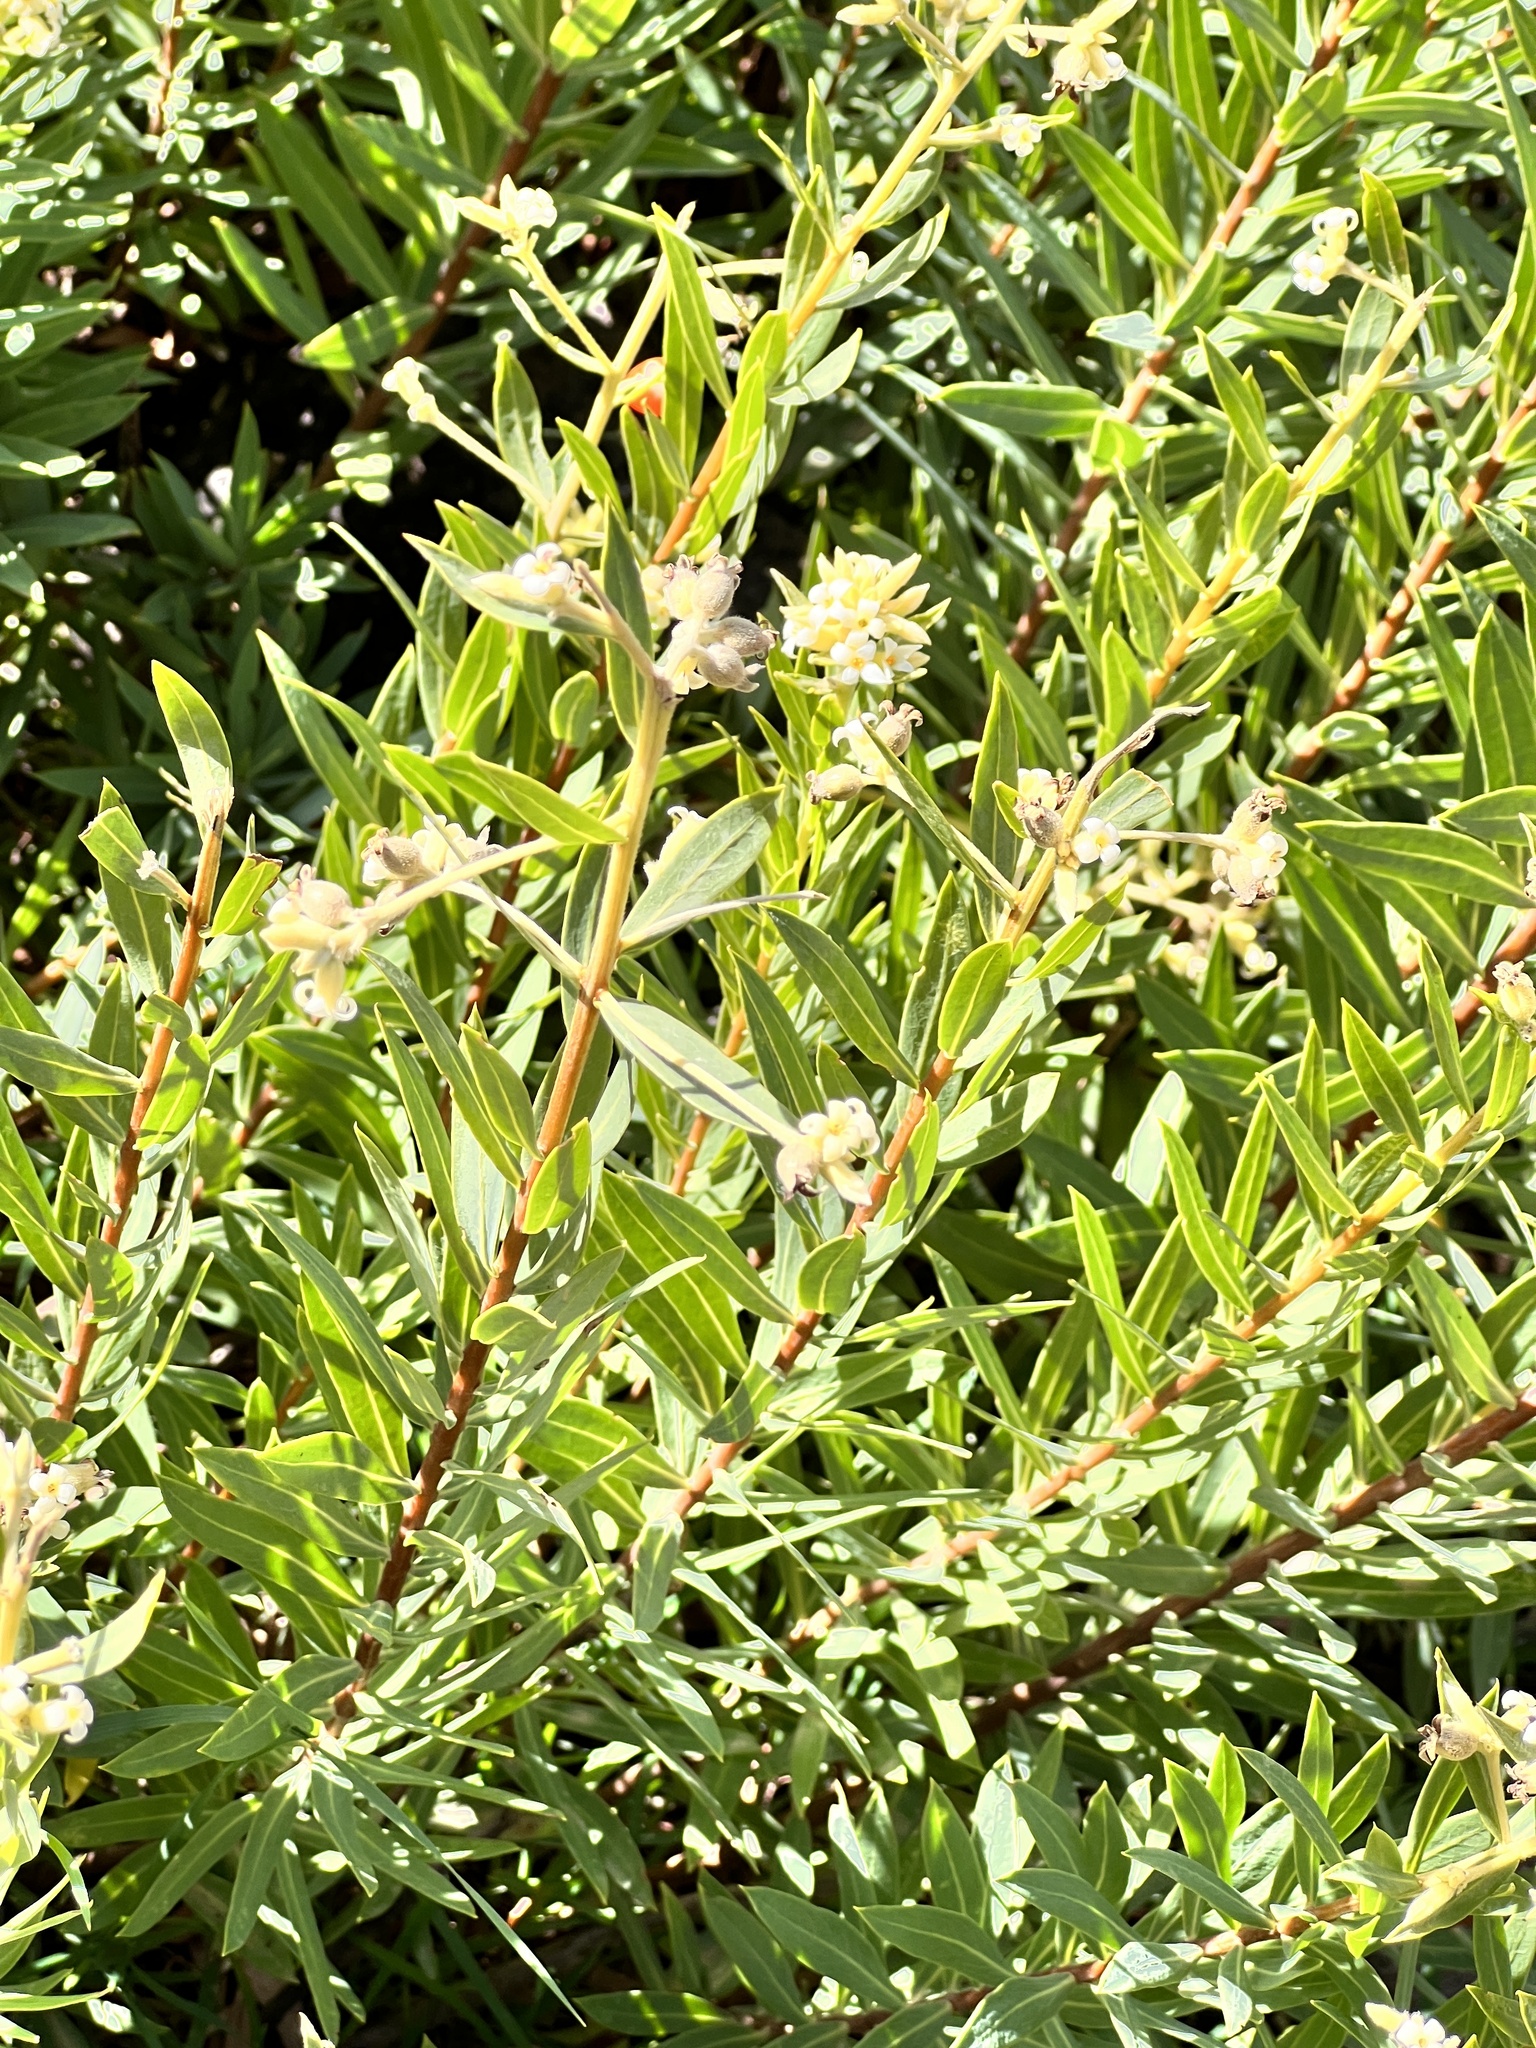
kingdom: Plantae
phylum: Tracheophyta
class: Magnoliopsida
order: Malvales
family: Thymelaeaceae
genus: Daphne
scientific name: Daphne gnidium
